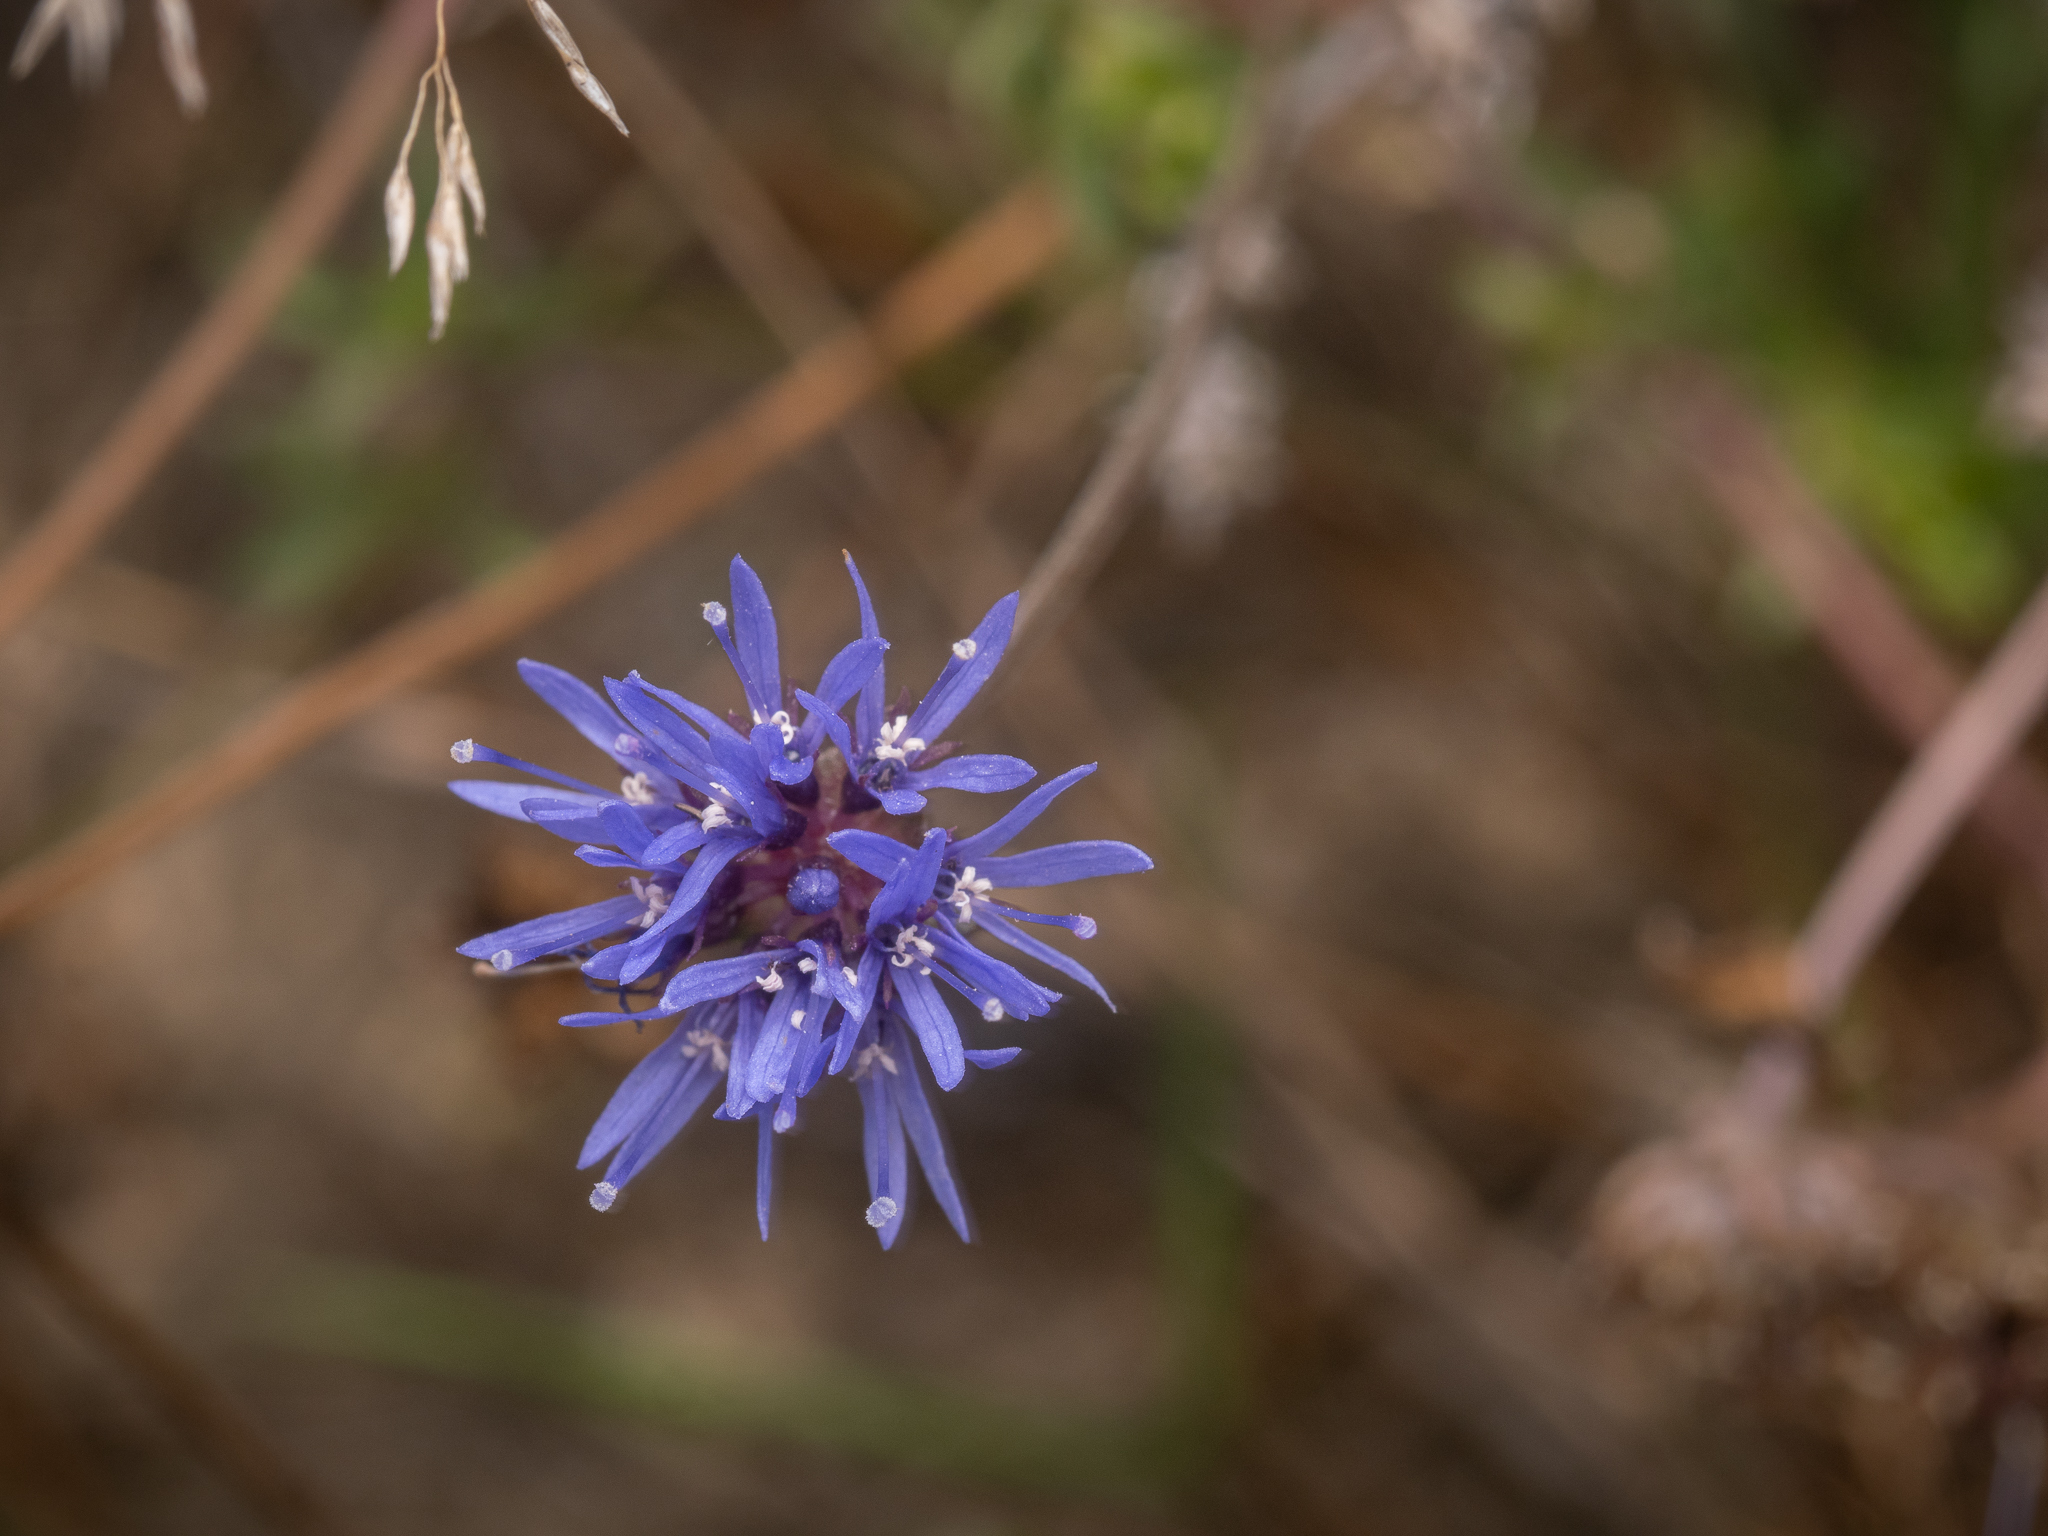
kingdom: Plantae
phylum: Tracheophyta
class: Magnoliopsida
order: Asterales
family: Campanulaceae
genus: Jasione
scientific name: Jasione montana
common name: Sheep's-bit
